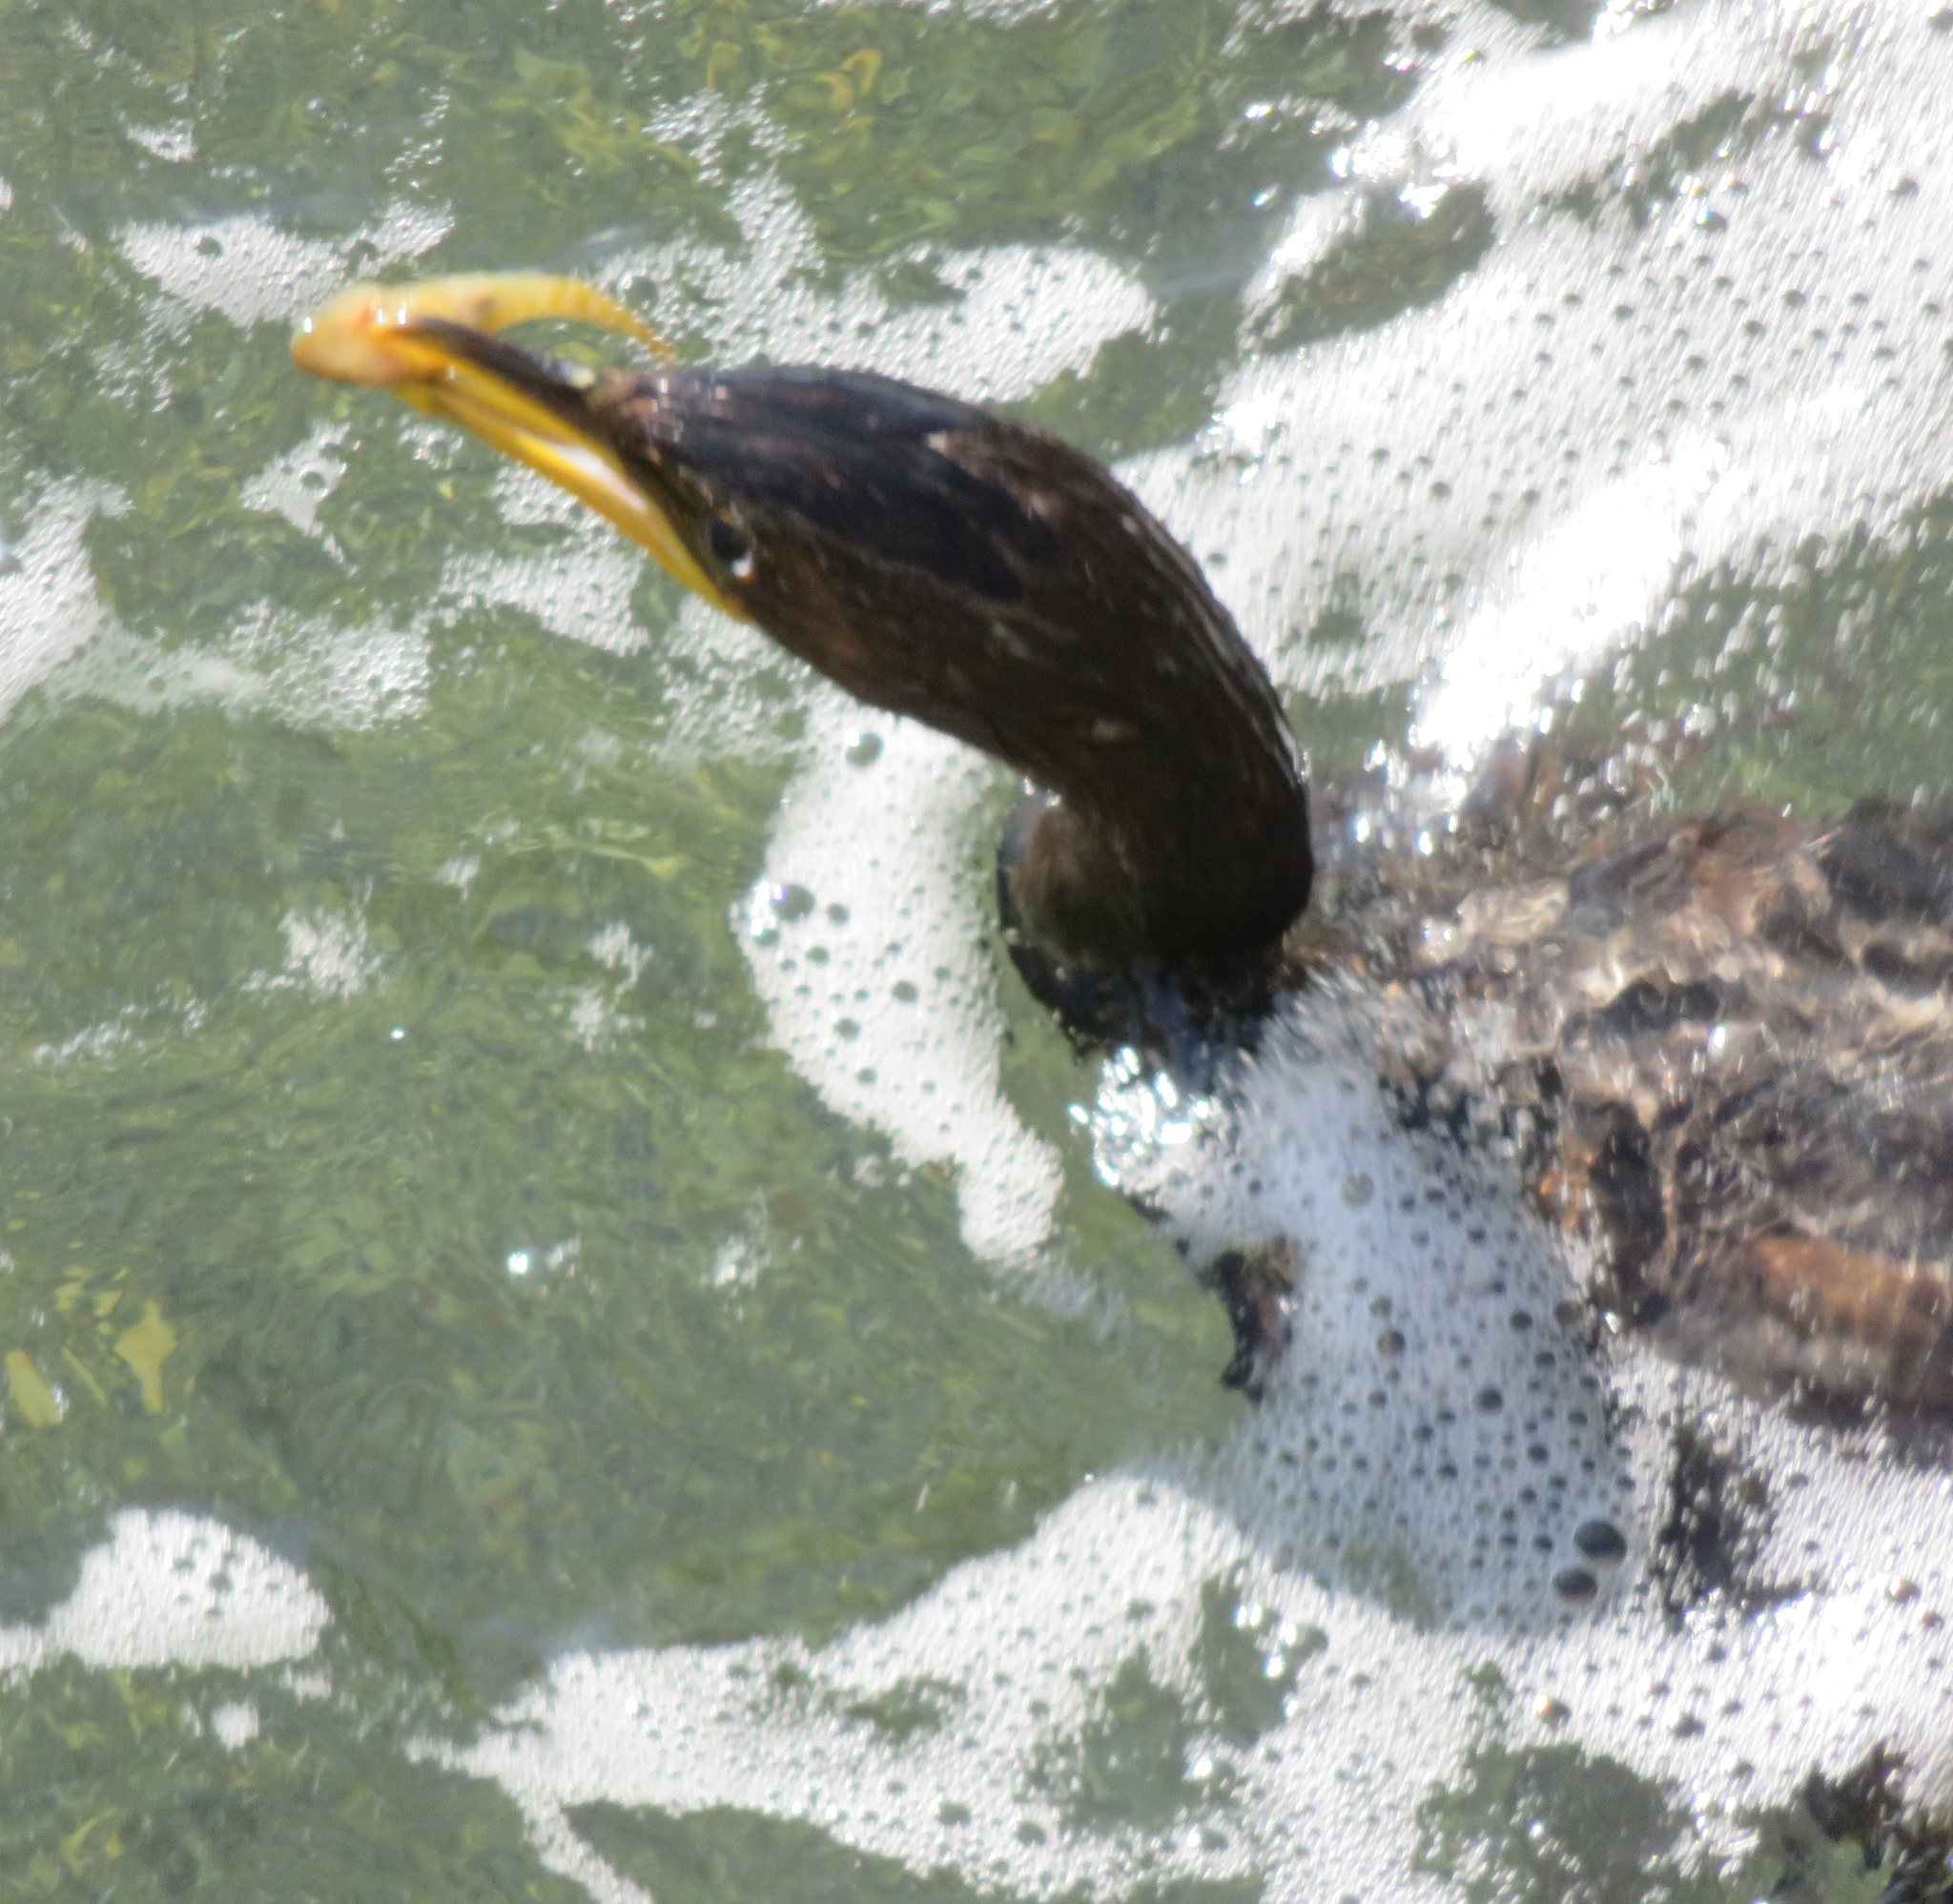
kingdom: Animalia
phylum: Chordata
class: Aves
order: Suliformes
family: Phalacrocoracidae
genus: Microcarbo
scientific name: Microcarbo melanoleucos
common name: Little pied cormorant
